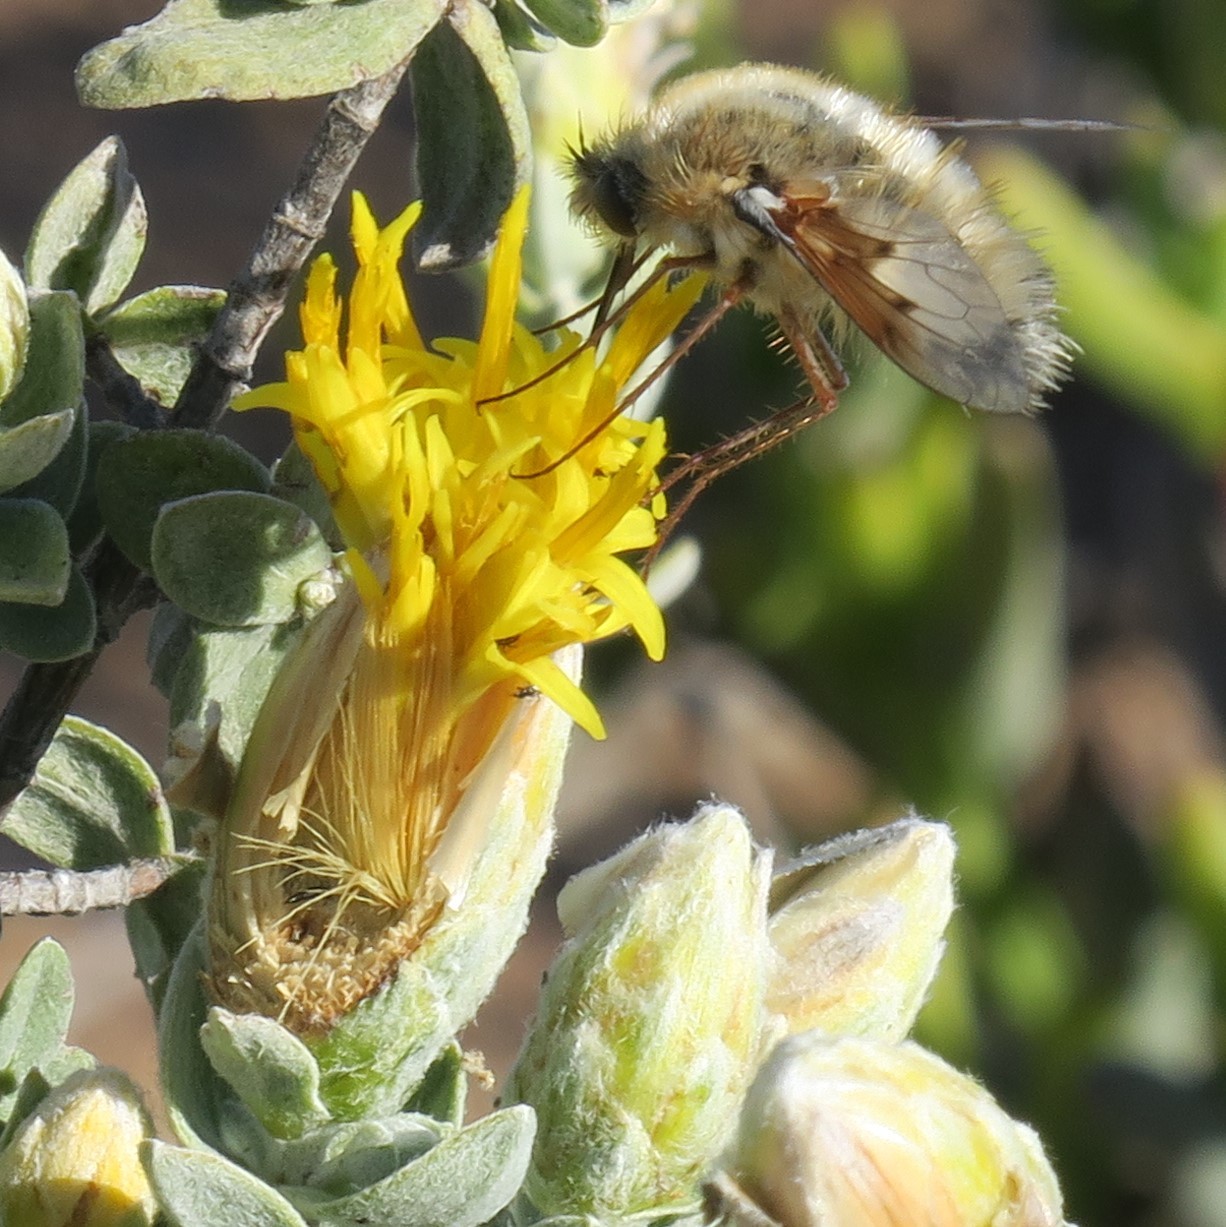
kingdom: Plantae
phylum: Tracheophyta
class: Magnoliopsida
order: Asterales
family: Asteraceae
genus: Pteronia
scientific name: Pteronia ovalifolia
